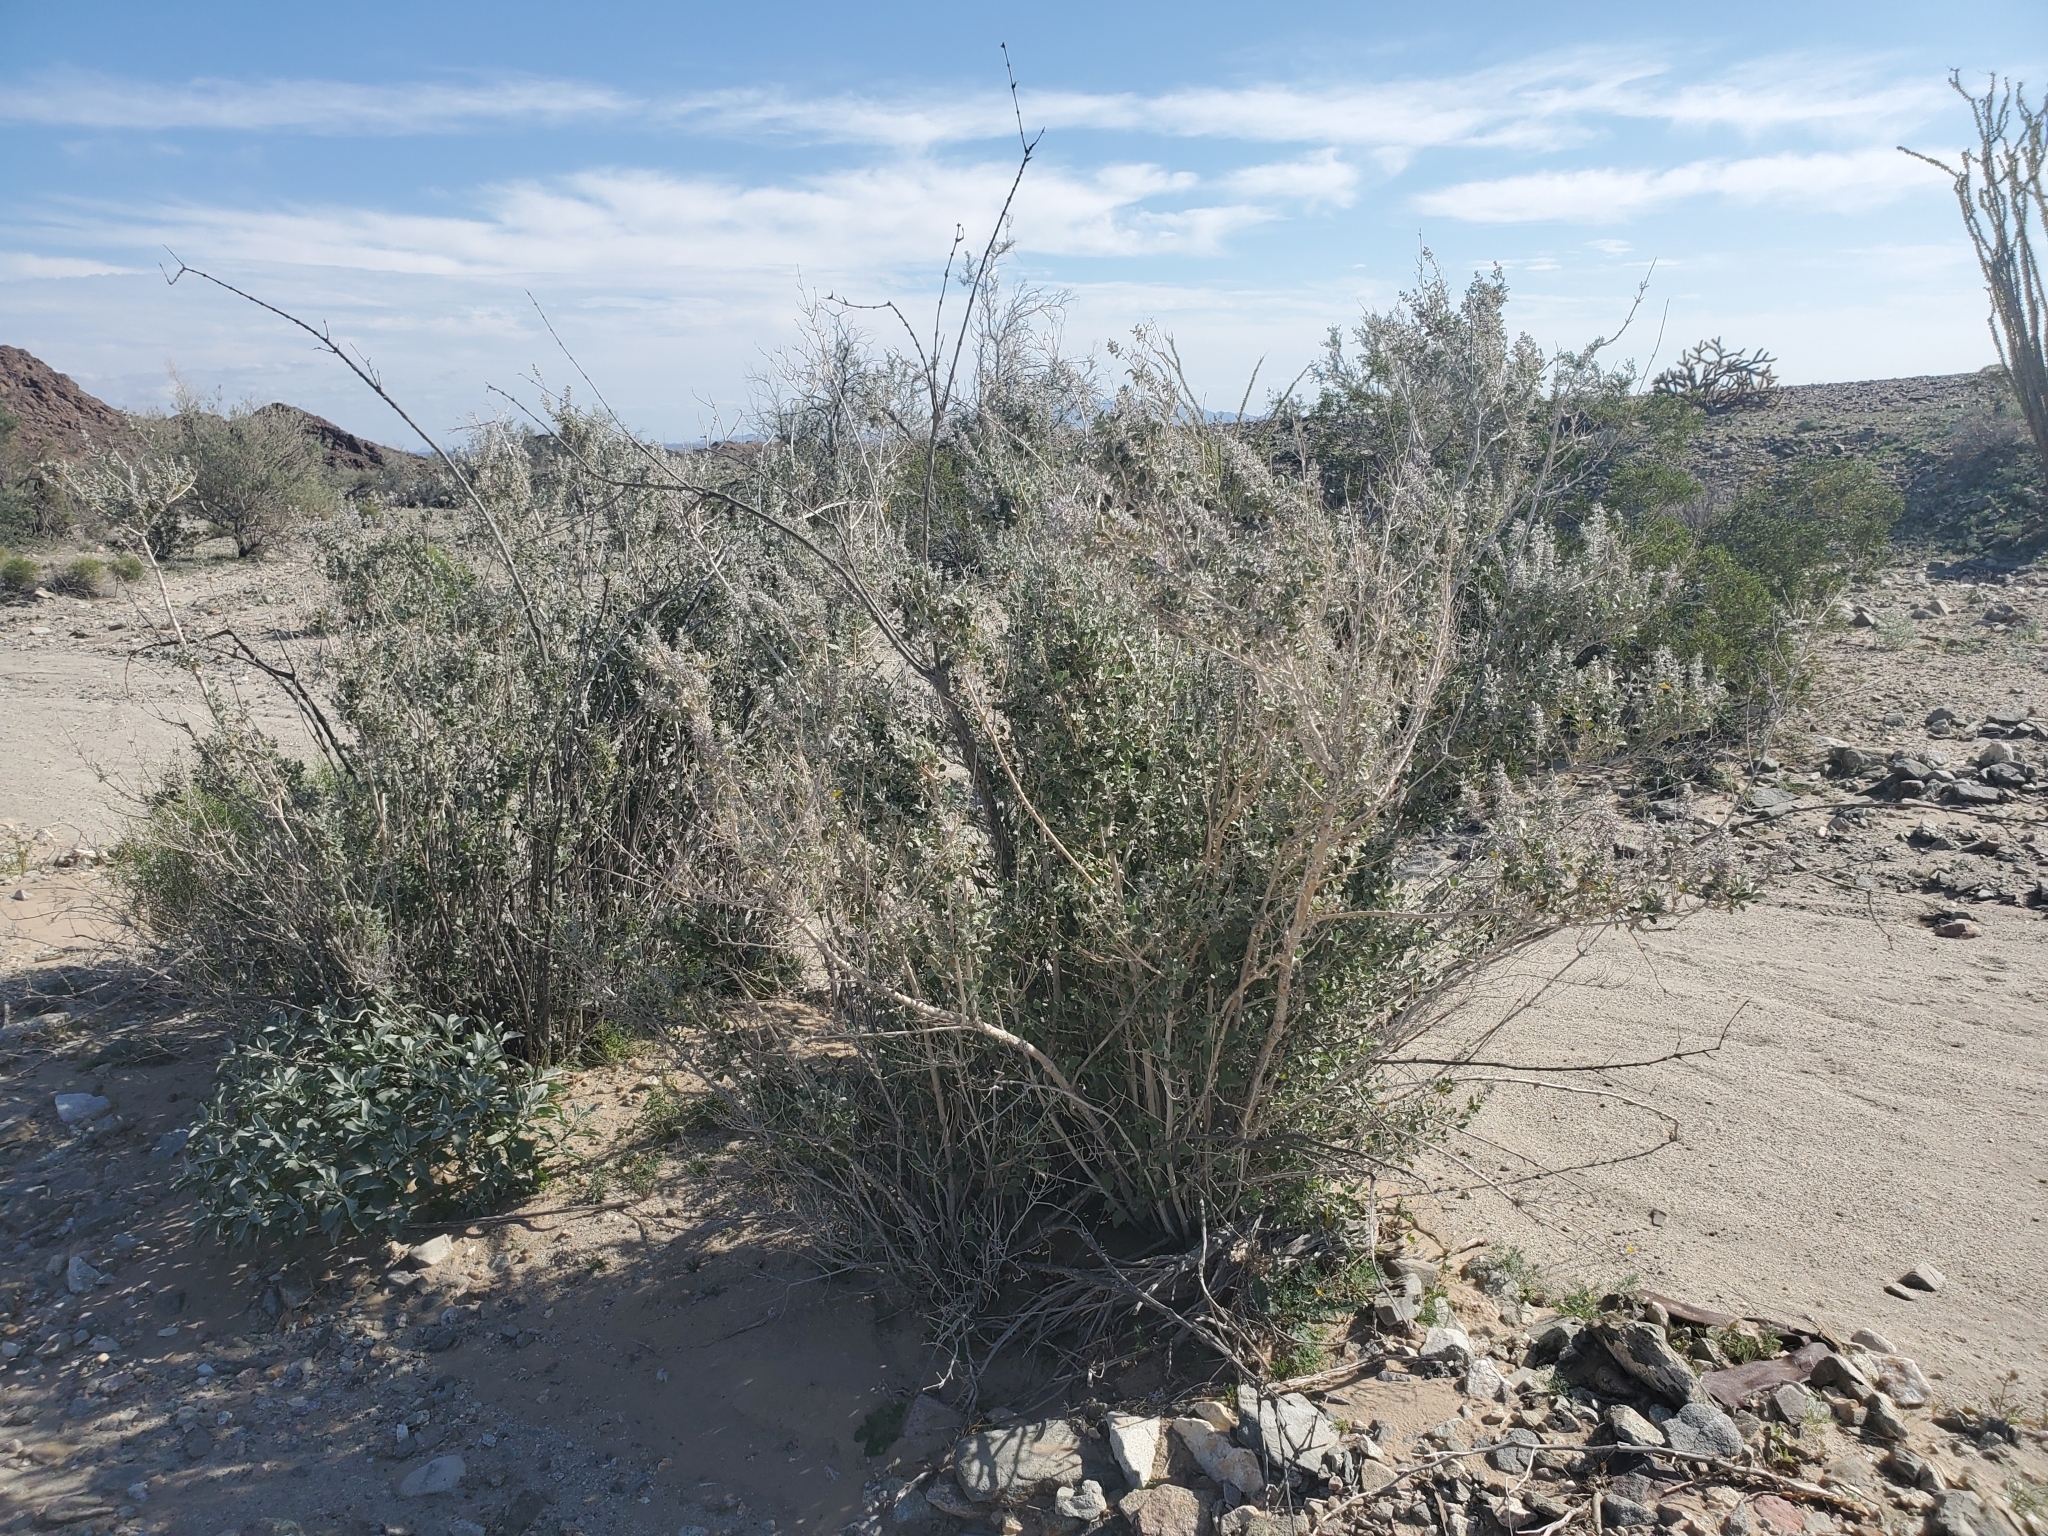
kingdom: Plantae
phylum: Tracheophyta
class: Magnoliopsida
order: Lamiales
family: Lamiaceae
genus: Condea
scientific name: Condea emoryi
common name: Chia
